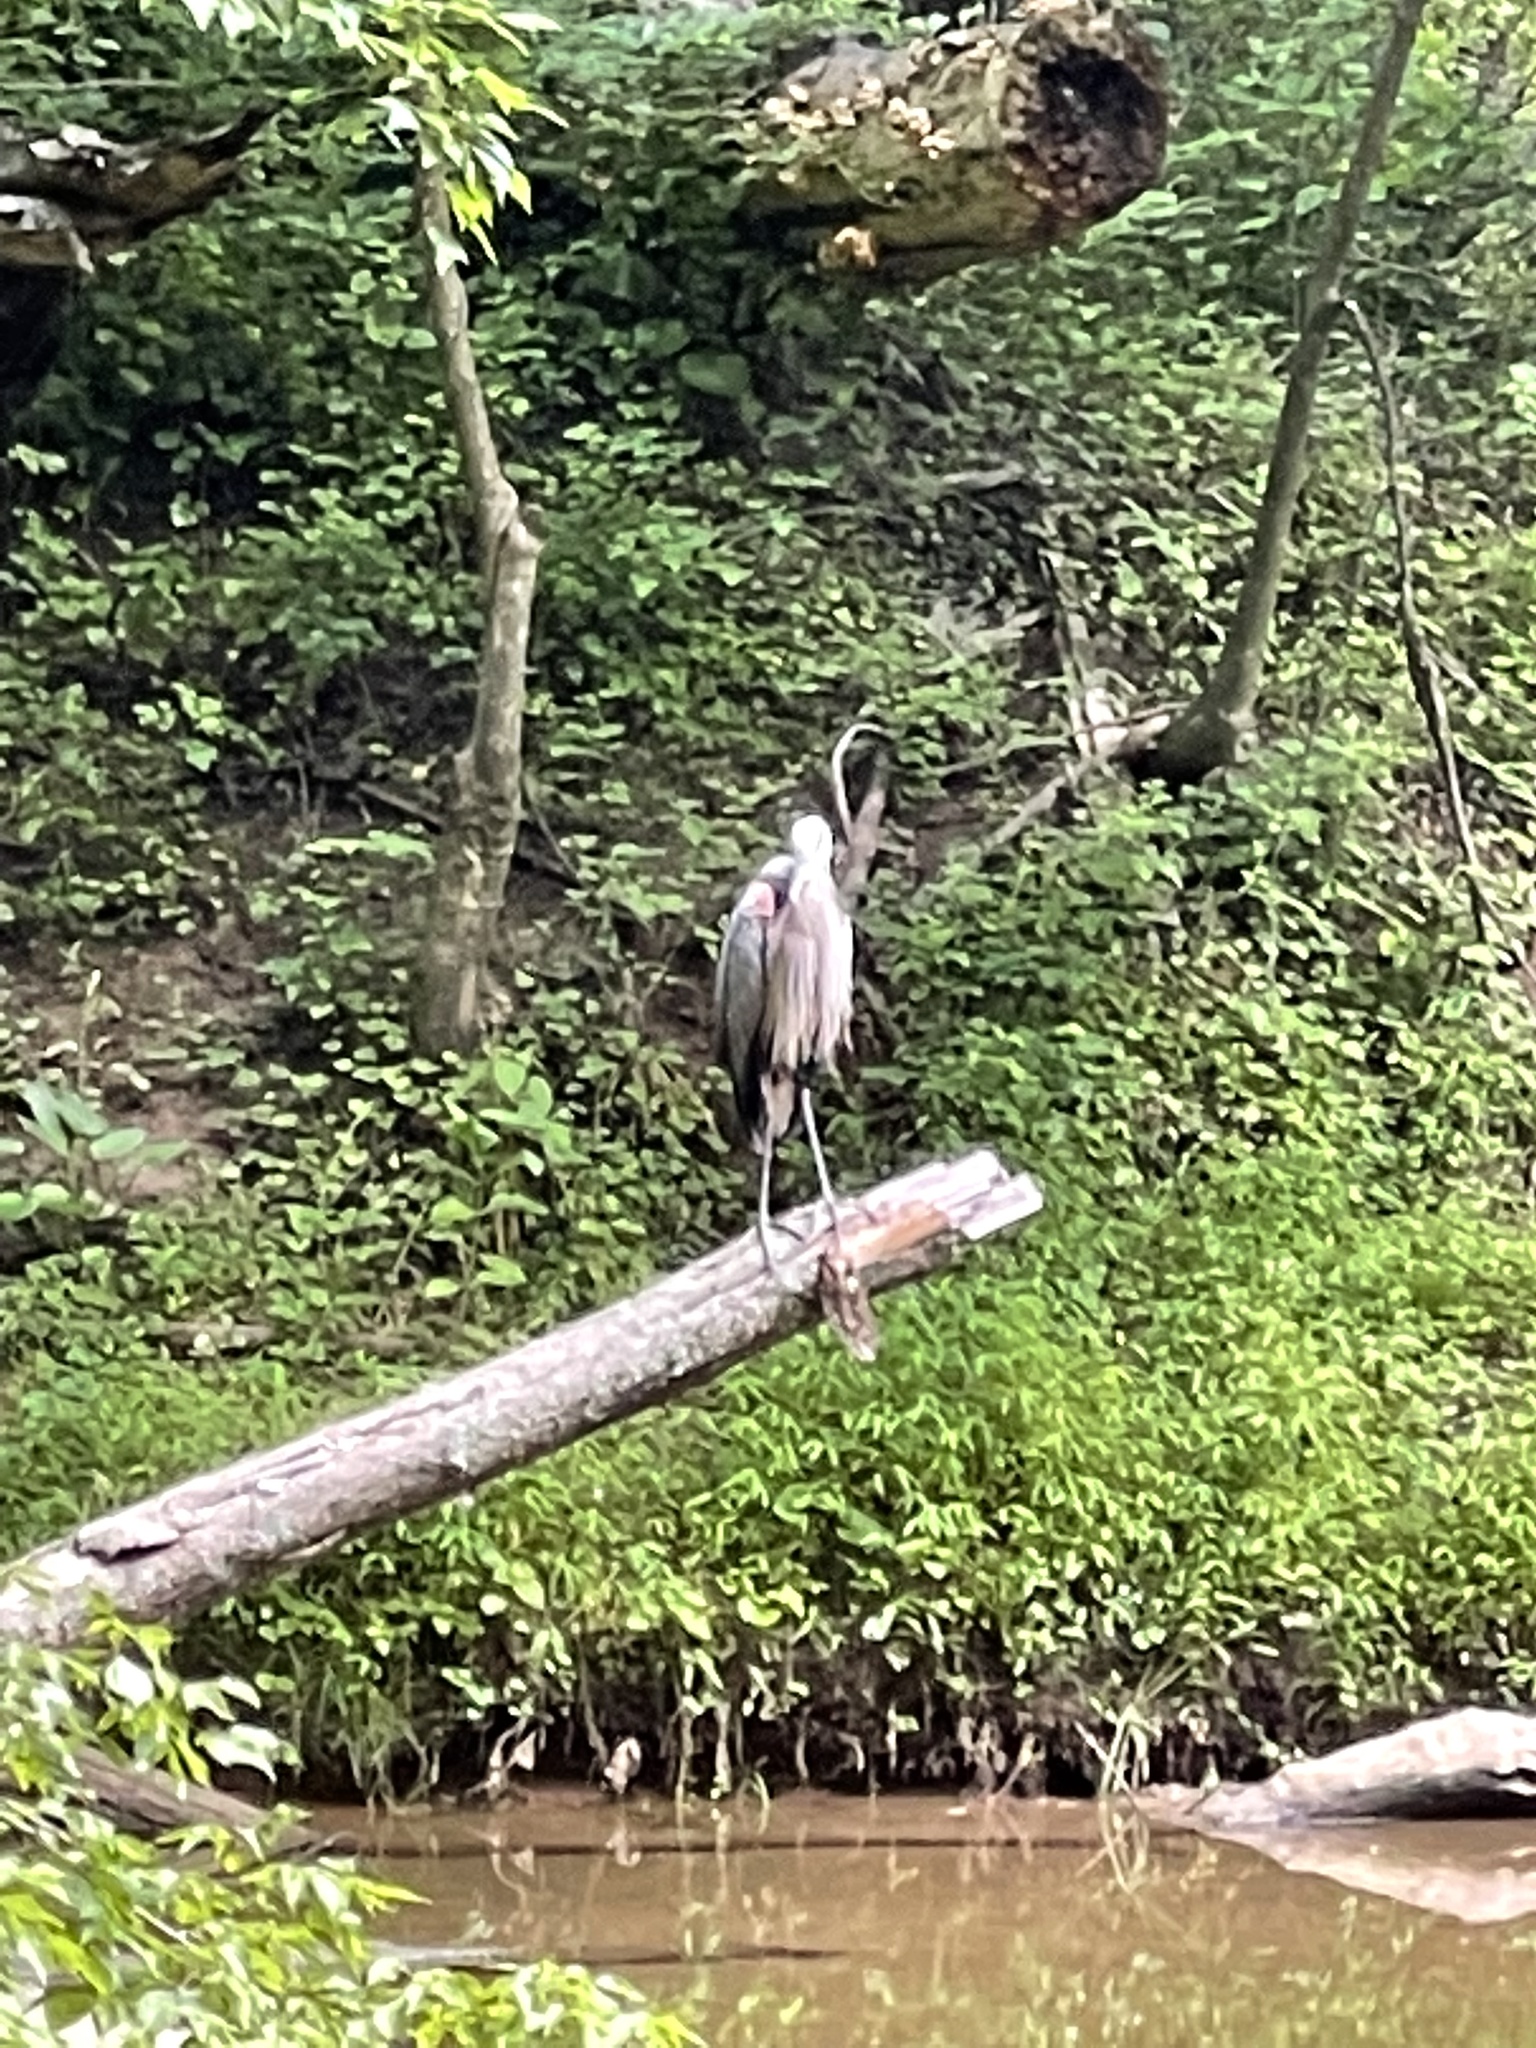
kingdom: Animalia
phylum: Chordata
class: Aves
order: Pelecaniformes
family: Ardeidae
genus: Ardea
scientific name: Ardea herodias
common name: Great blue heron
